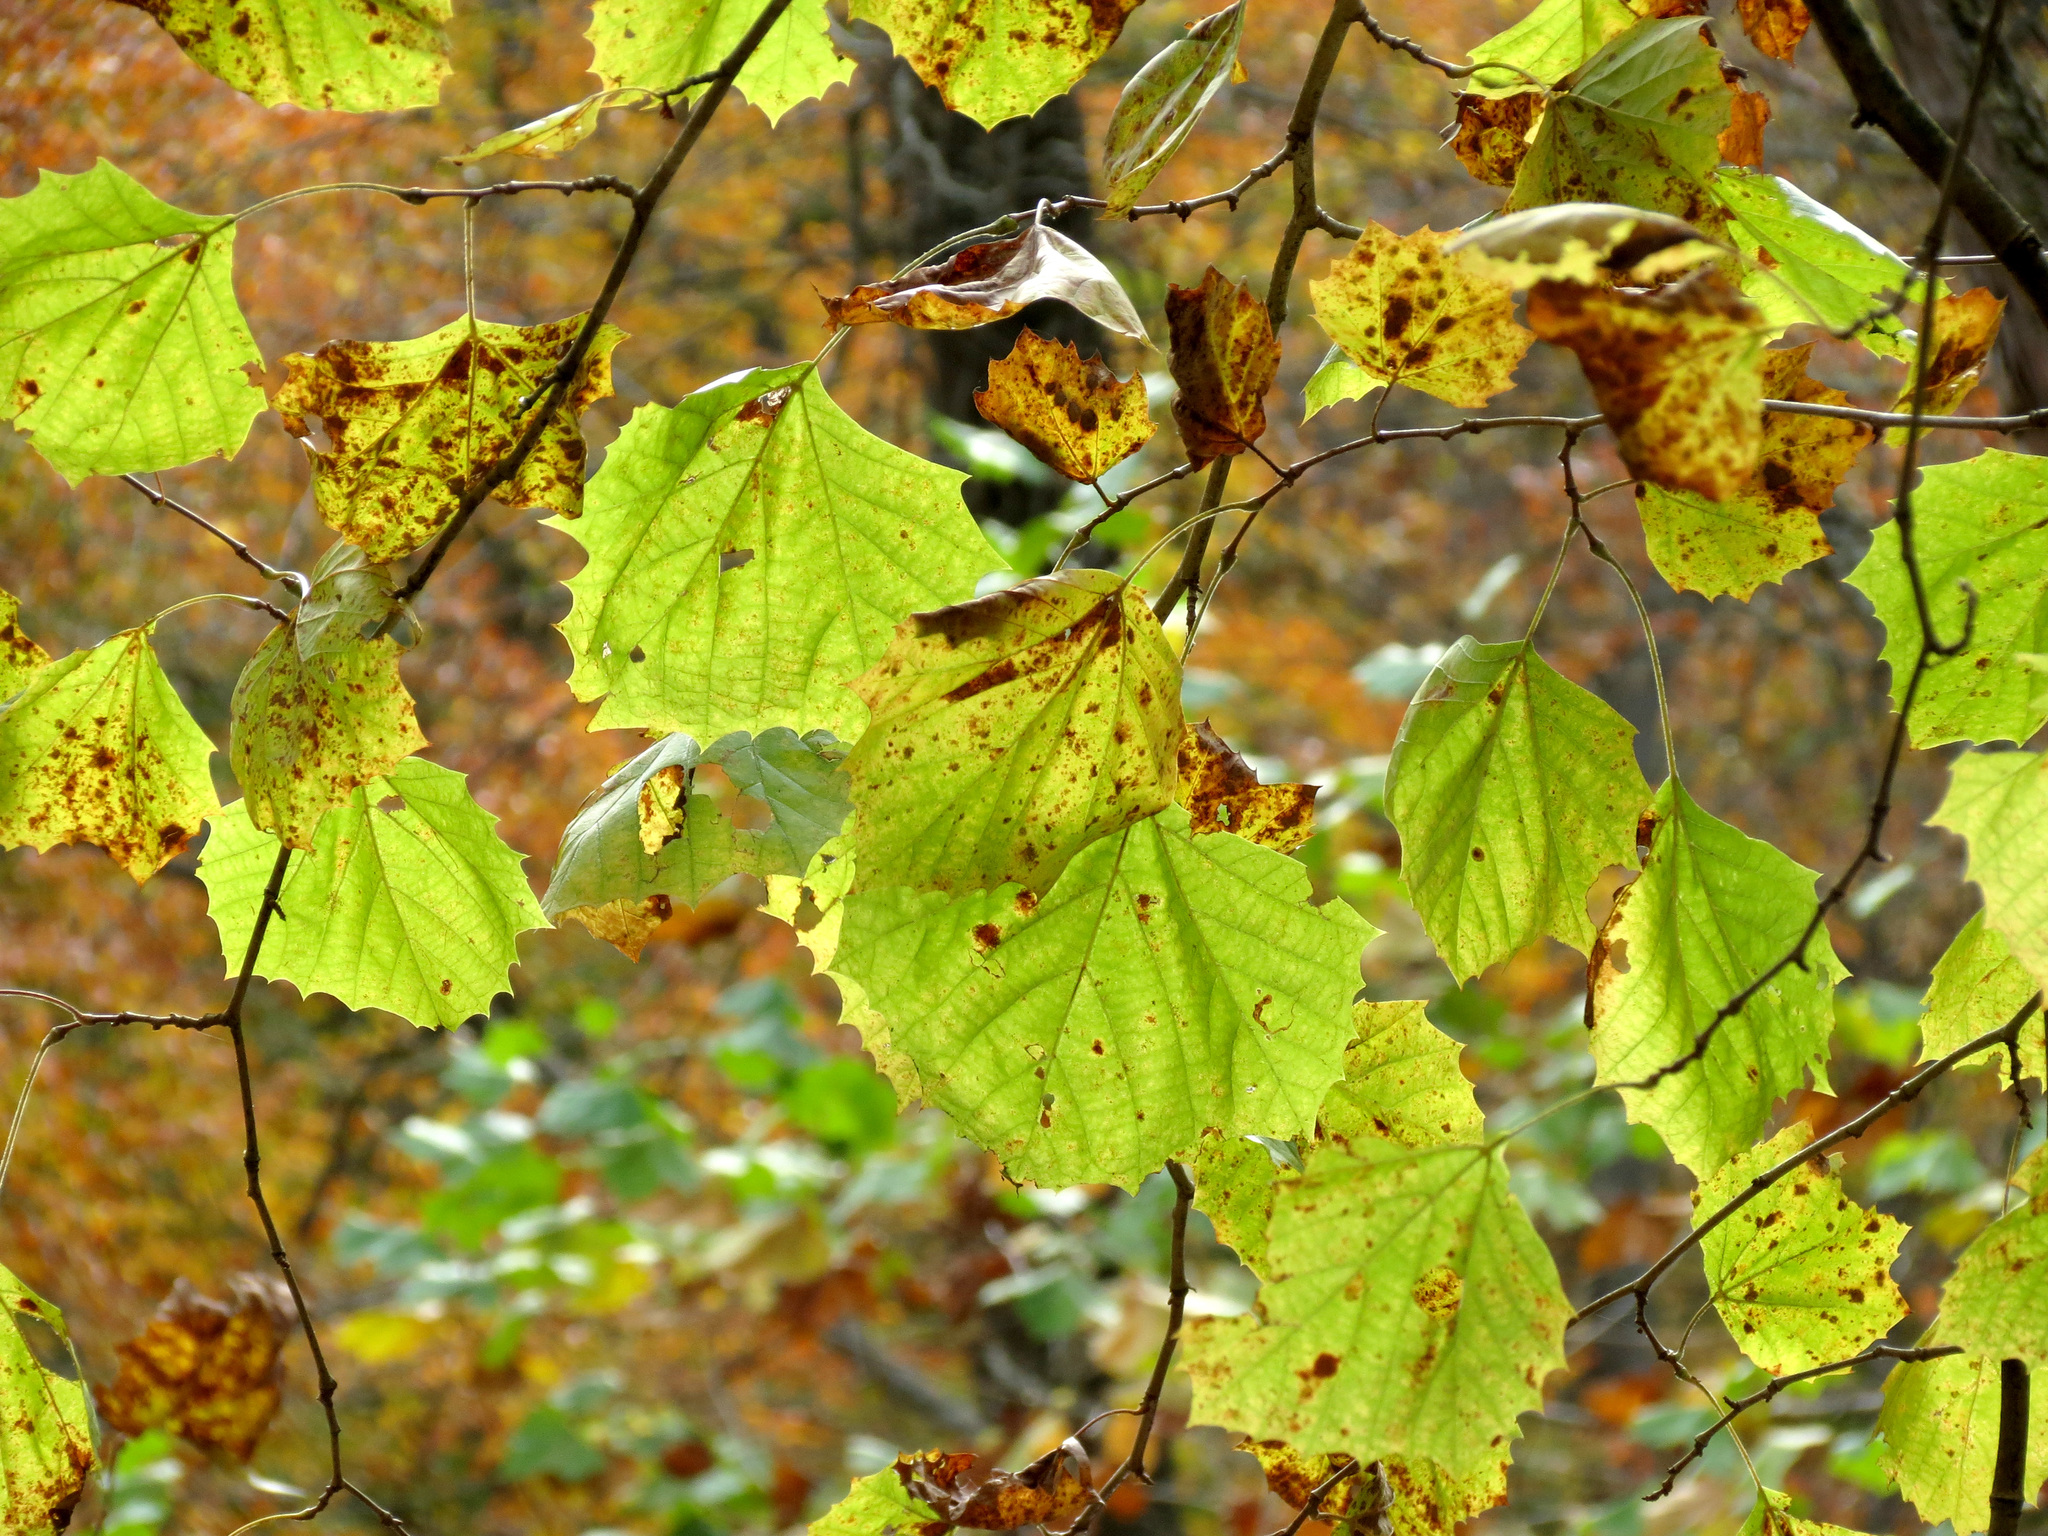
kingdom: Plantae
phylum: Tracheophyta
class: Magnoliopsida
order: Proteales
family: Platanaceae
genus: Platanus
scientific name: Platanus occidentalis
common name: American sycamore
